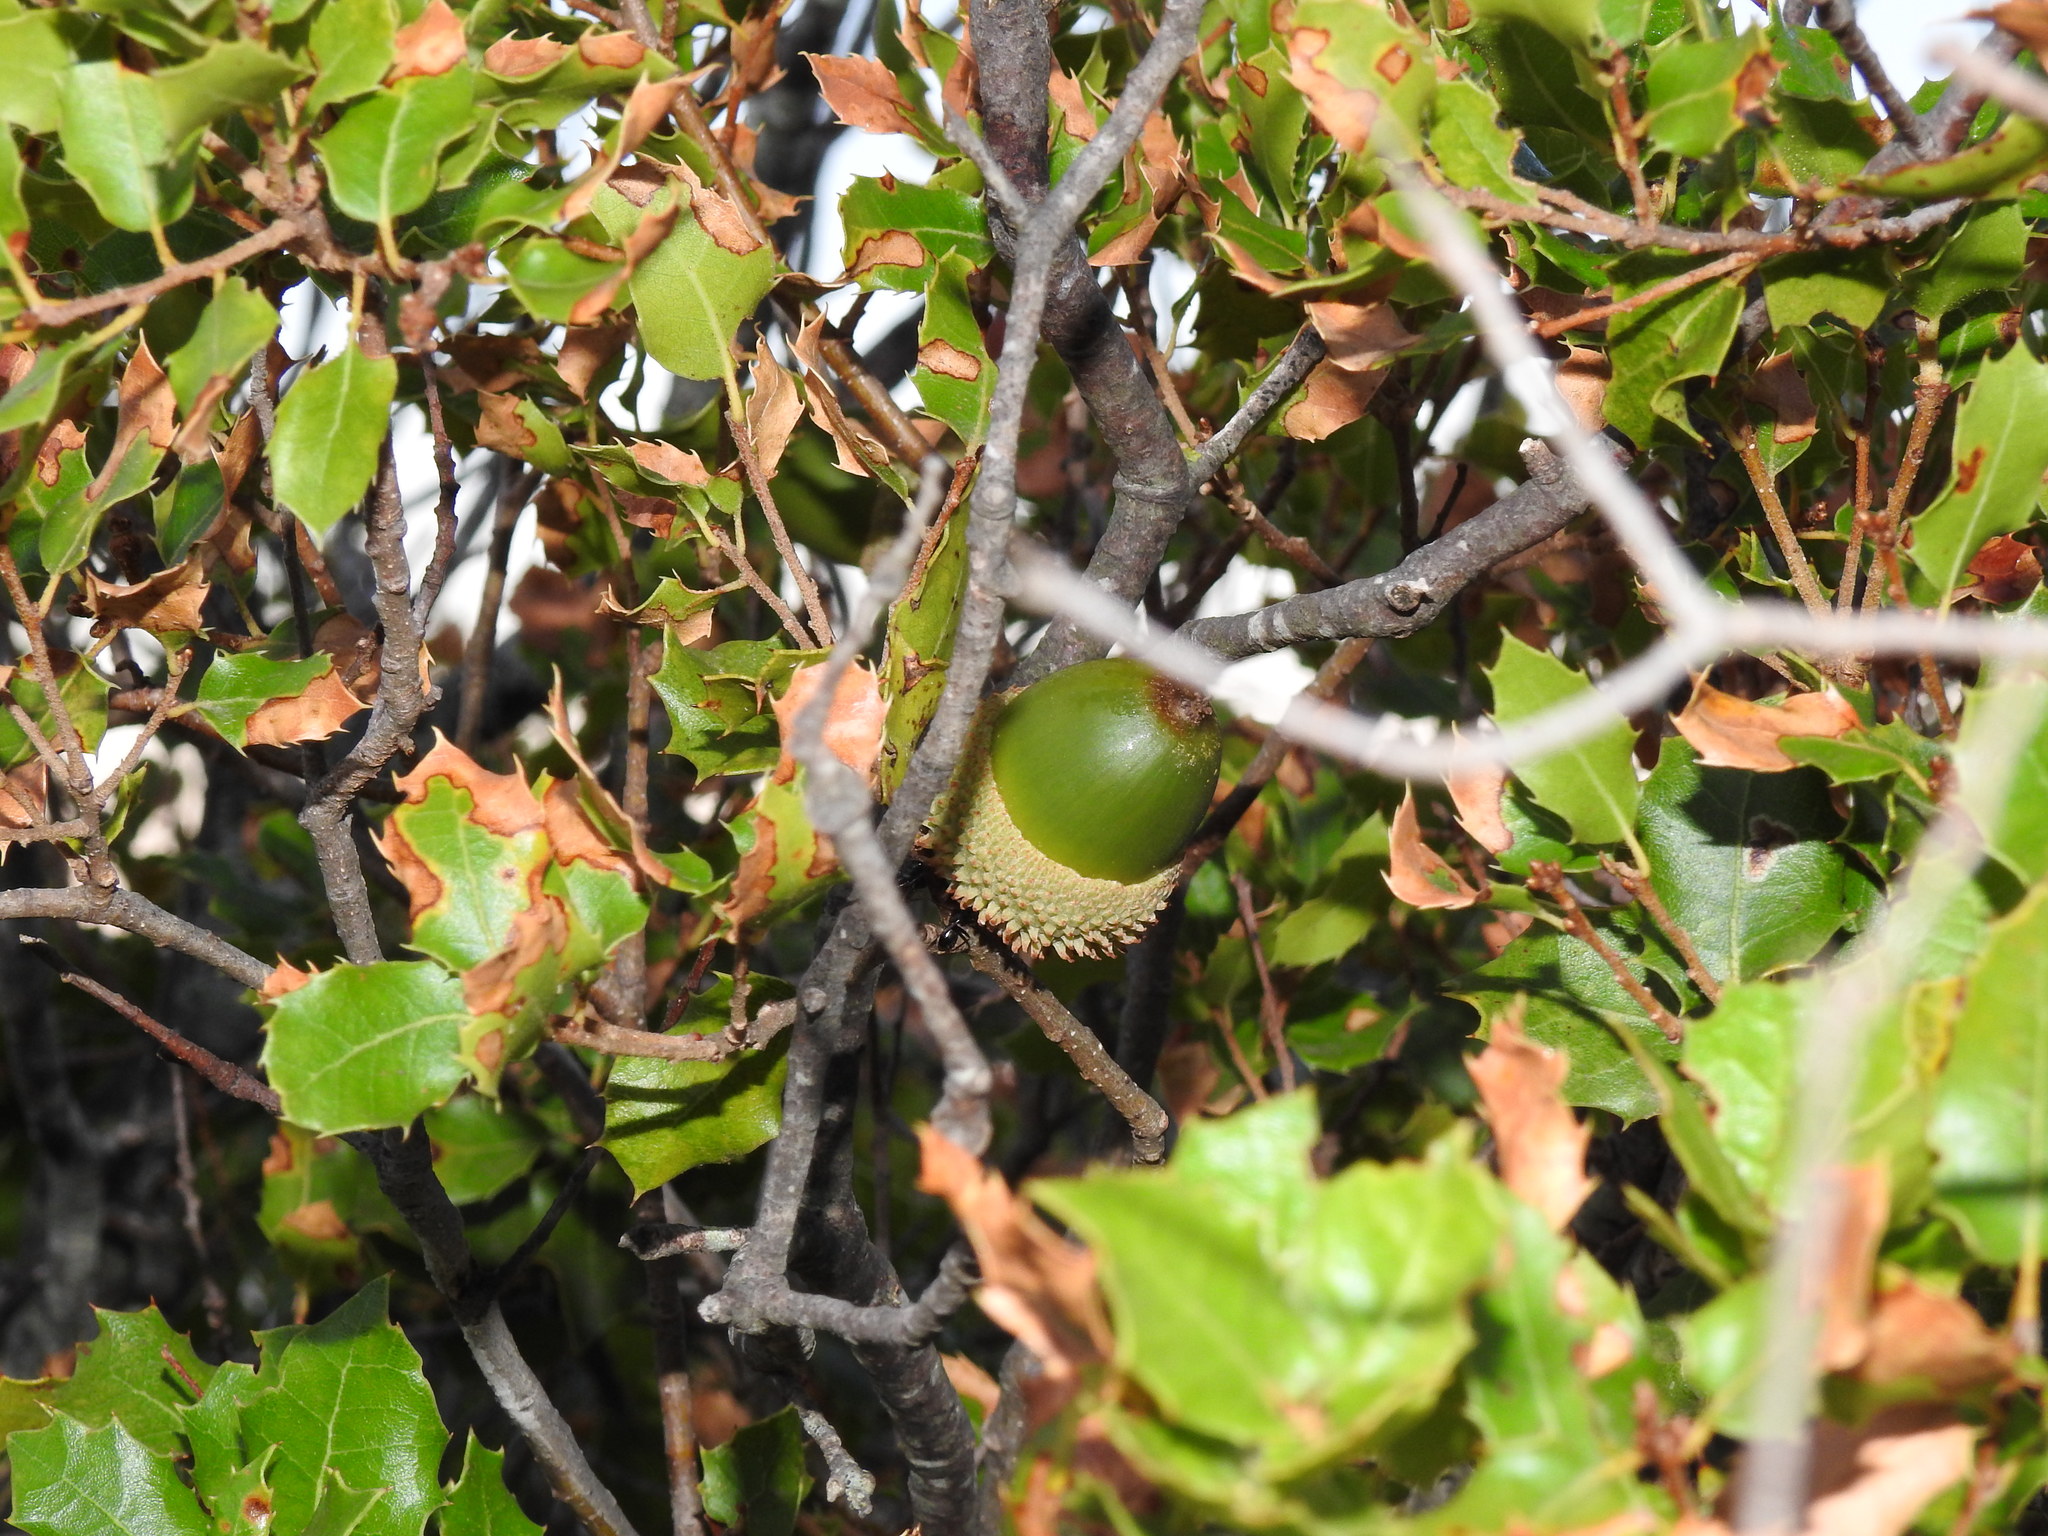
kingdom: Plantae
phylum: Tracheophyta
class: Magnoliopsida
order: Fagales
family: Fagaceae
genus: Quercus
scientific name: Quercus coccifera
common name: Kermes oak
